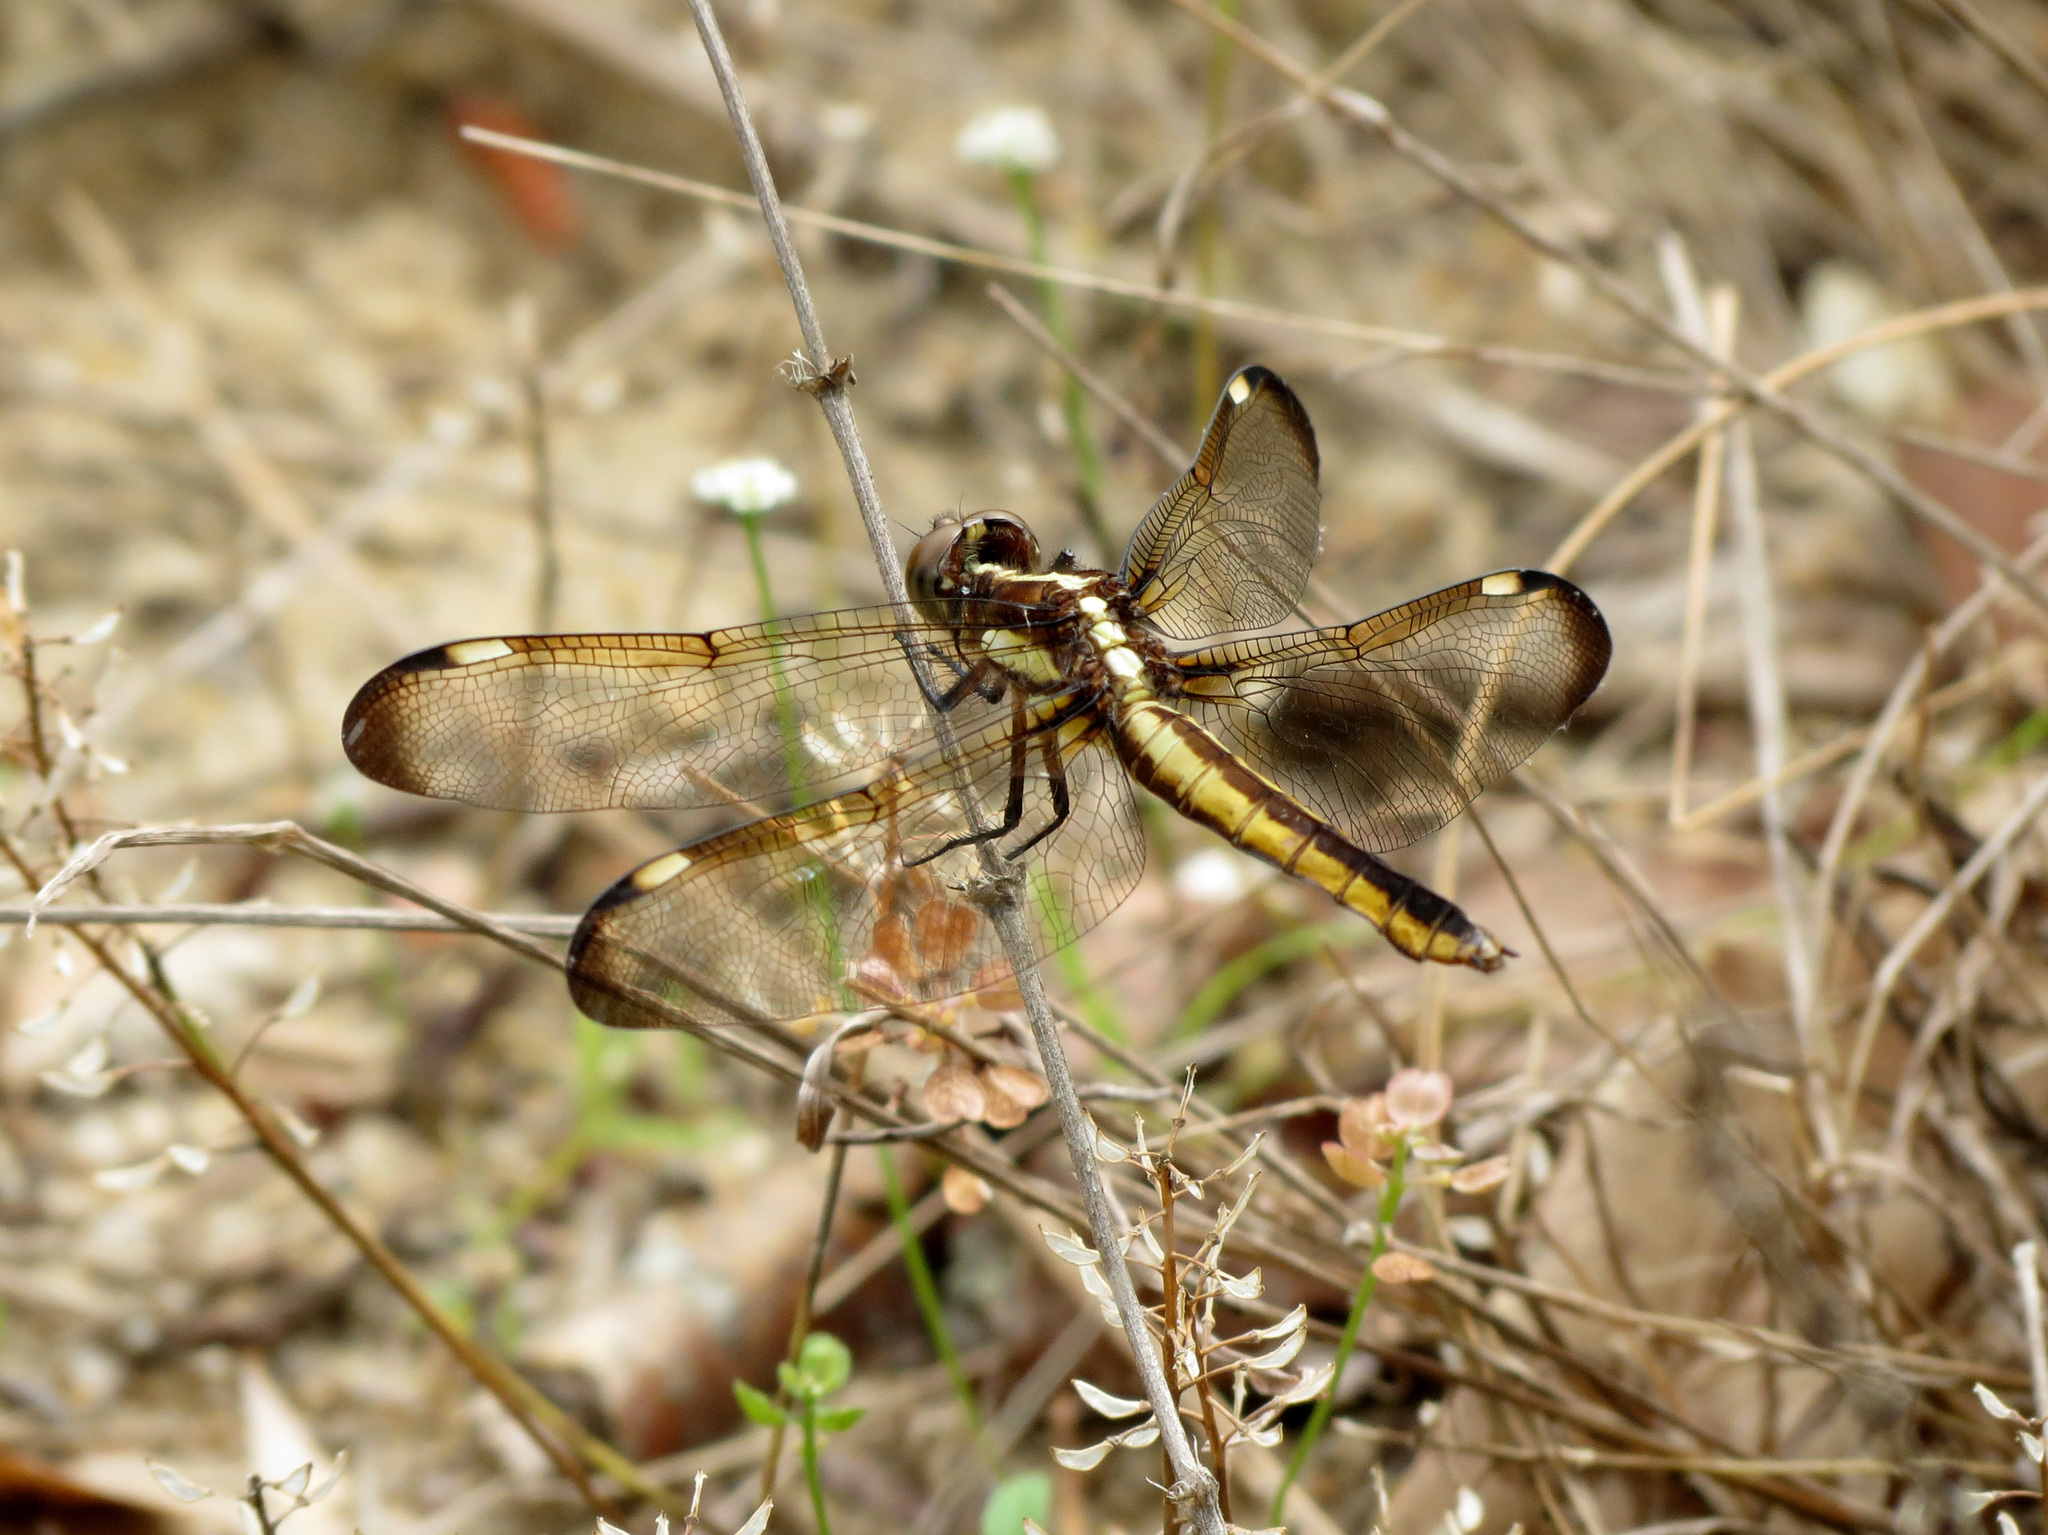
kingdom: Animalia
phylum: Arthropoda
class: Insecta
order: Odonata
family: Libellulidae
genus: Libellula
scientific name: Libellula cyanea
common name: Spangled skimmer
